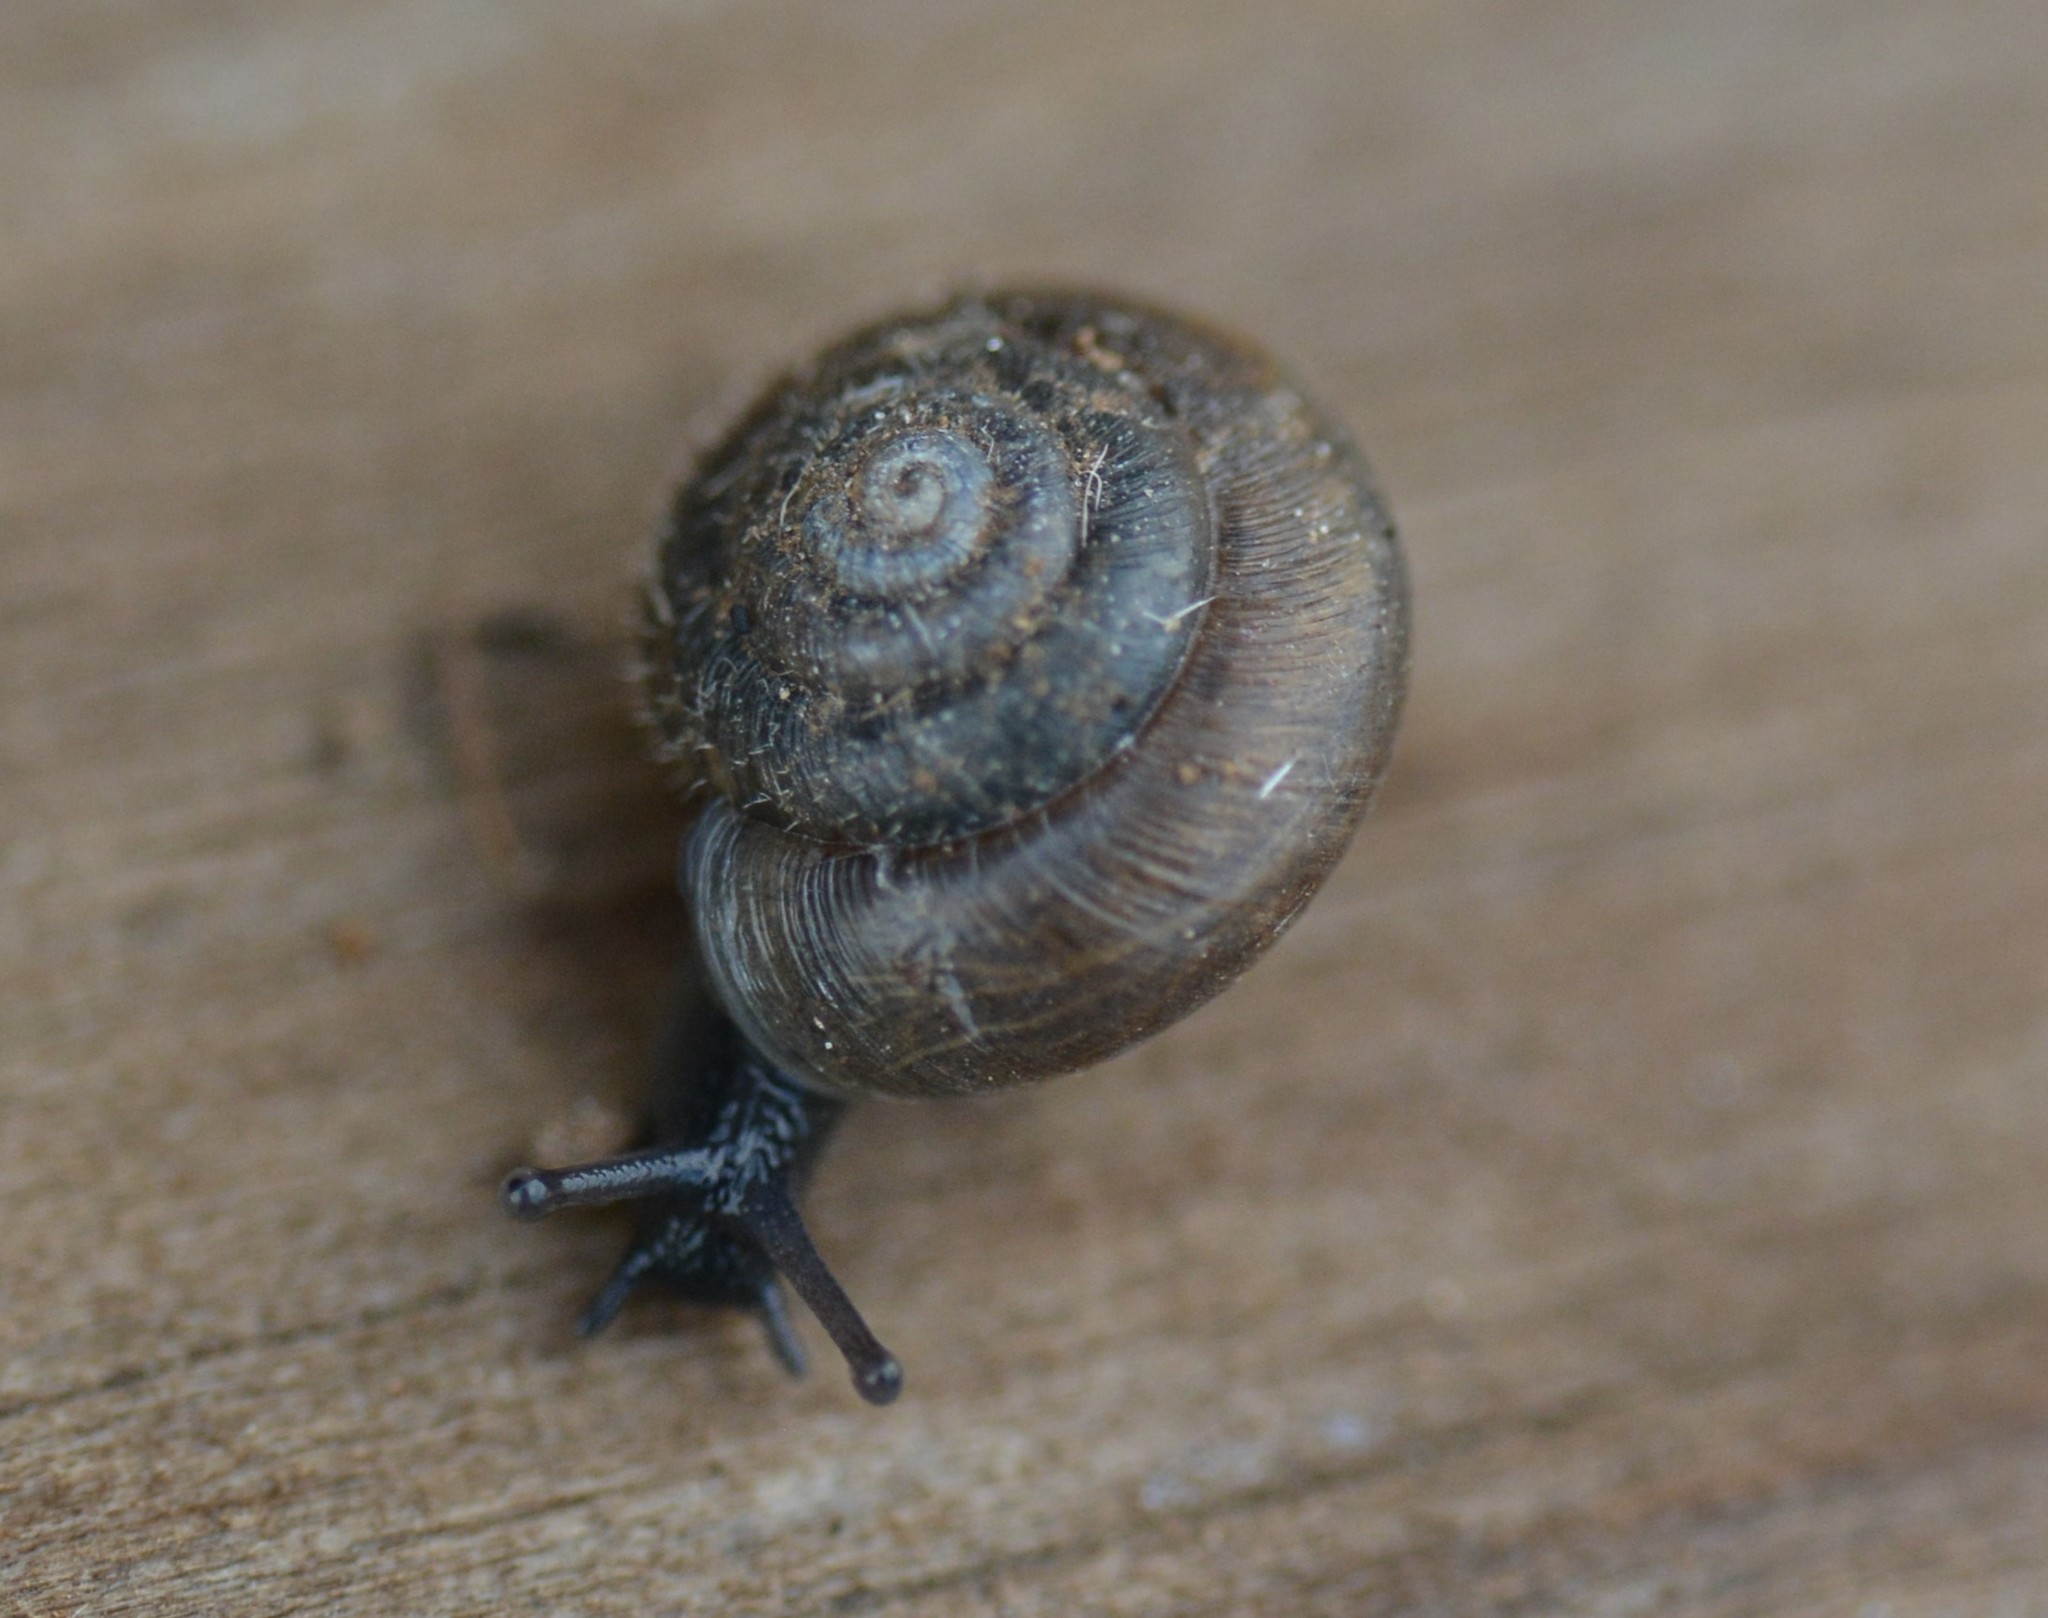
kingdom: Animalia
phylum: Mollusca
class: Gastropoda
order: Stylommatophora
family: Hygromiidae
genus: Trochulus
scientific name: Trochulus hispidus
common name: Hairy snail
